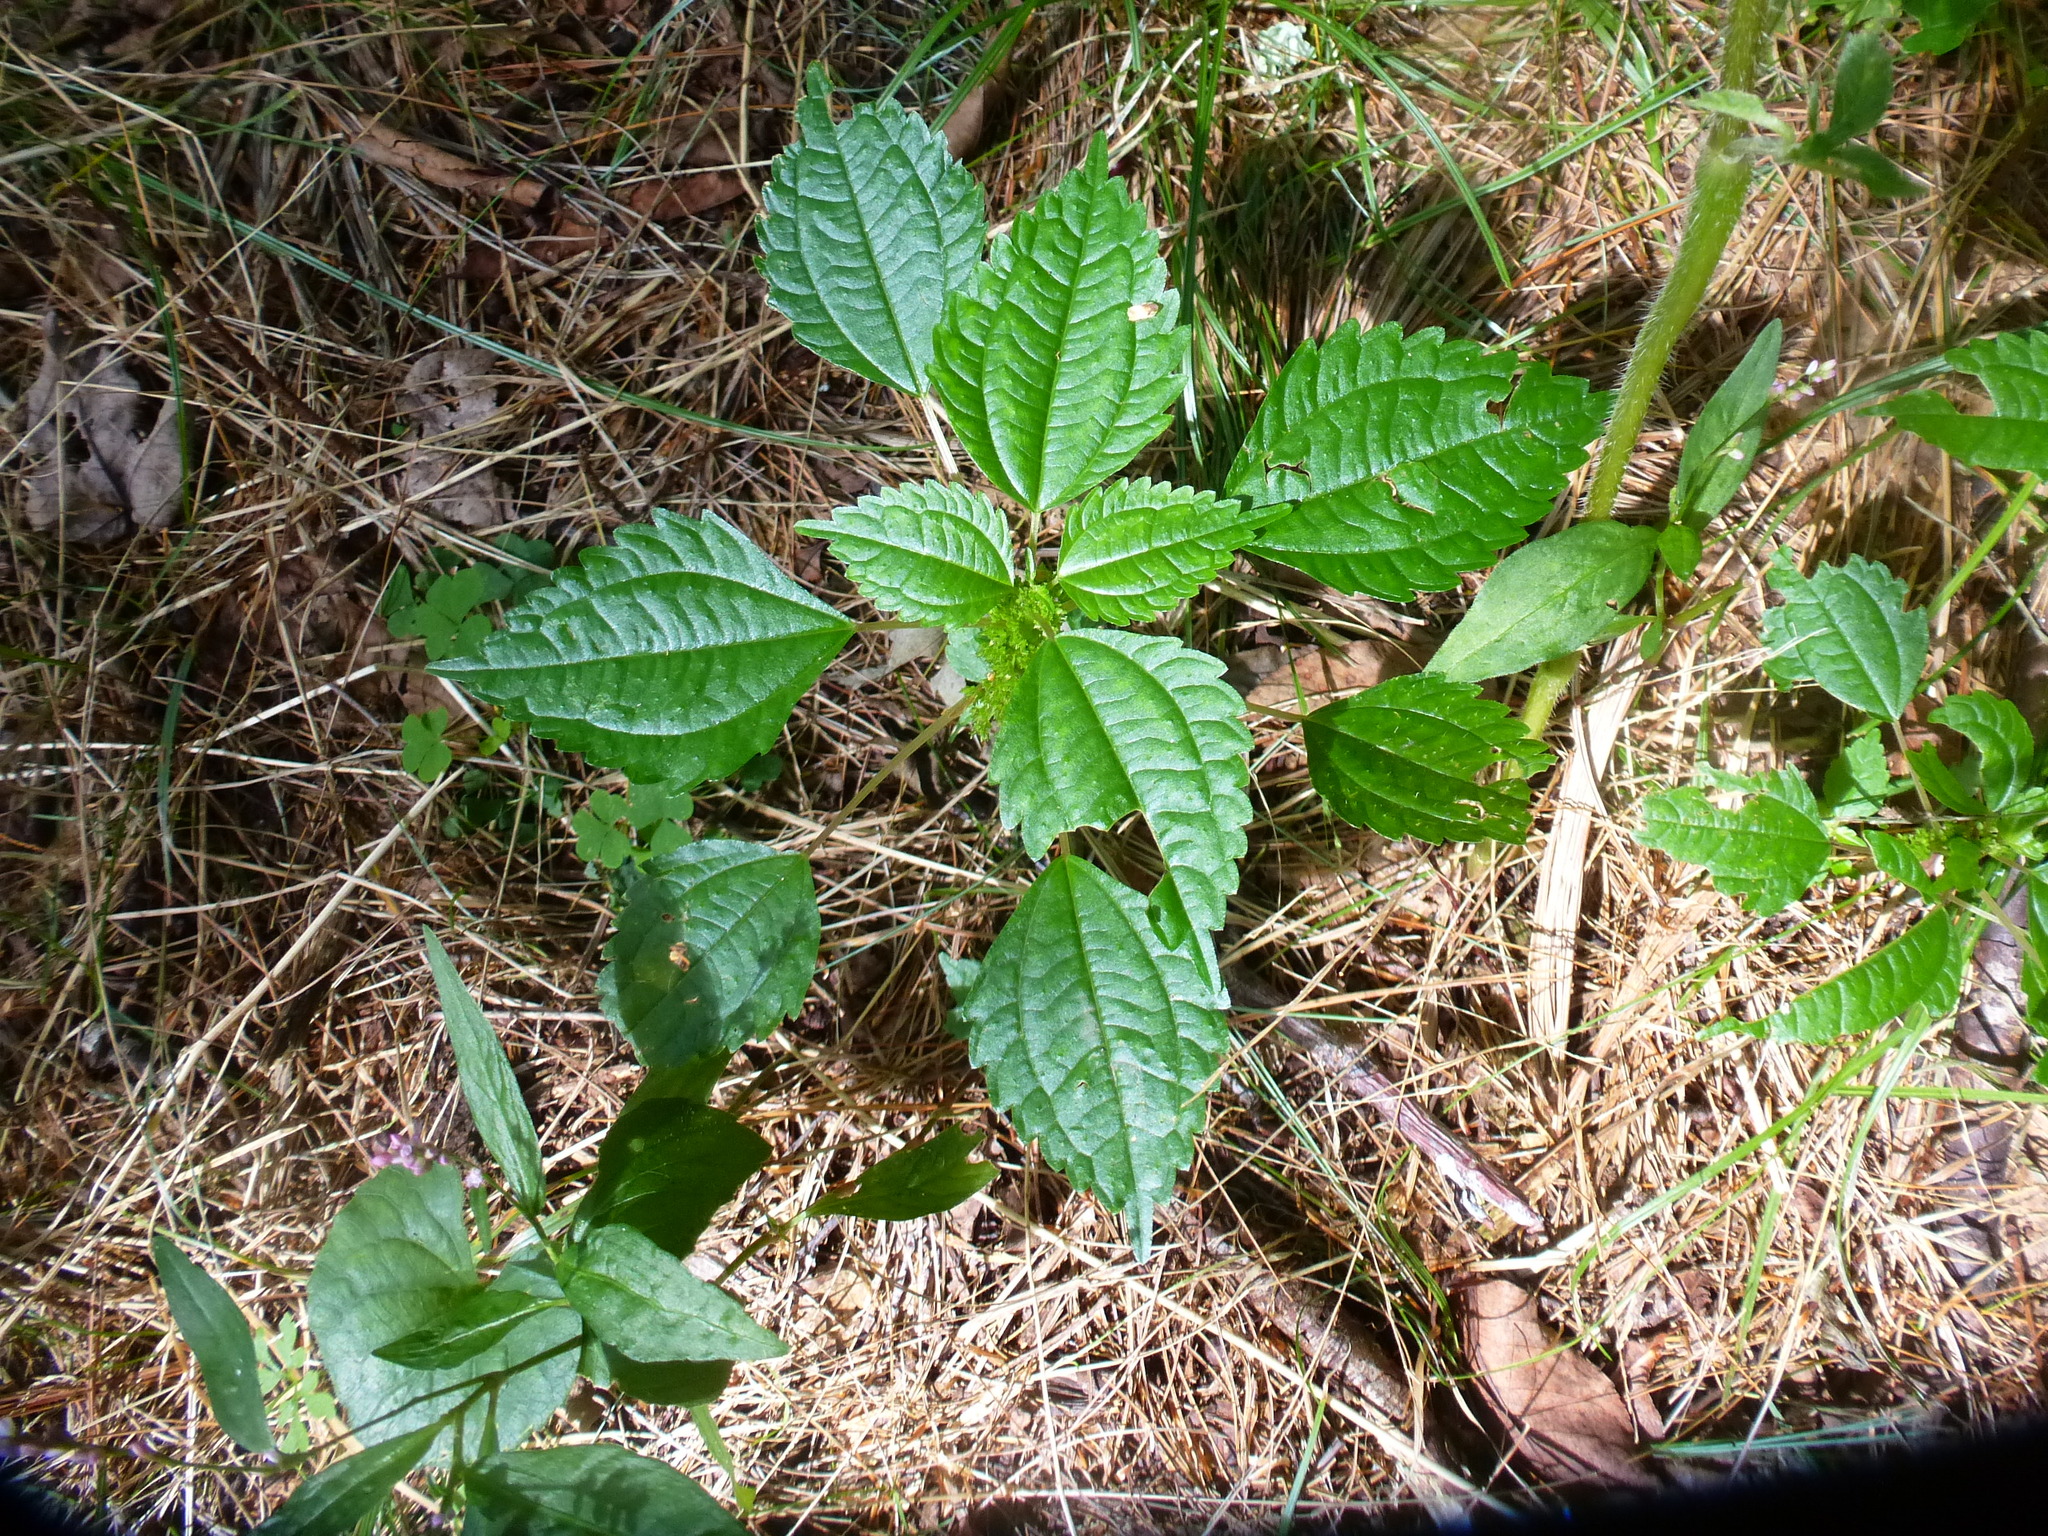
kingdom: Plantae
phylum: Tracheophyta
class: Magnoliopsida
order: Rosales
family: Urticaceae
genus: Pilea
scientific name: Pilea pumila
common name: Clearweed
